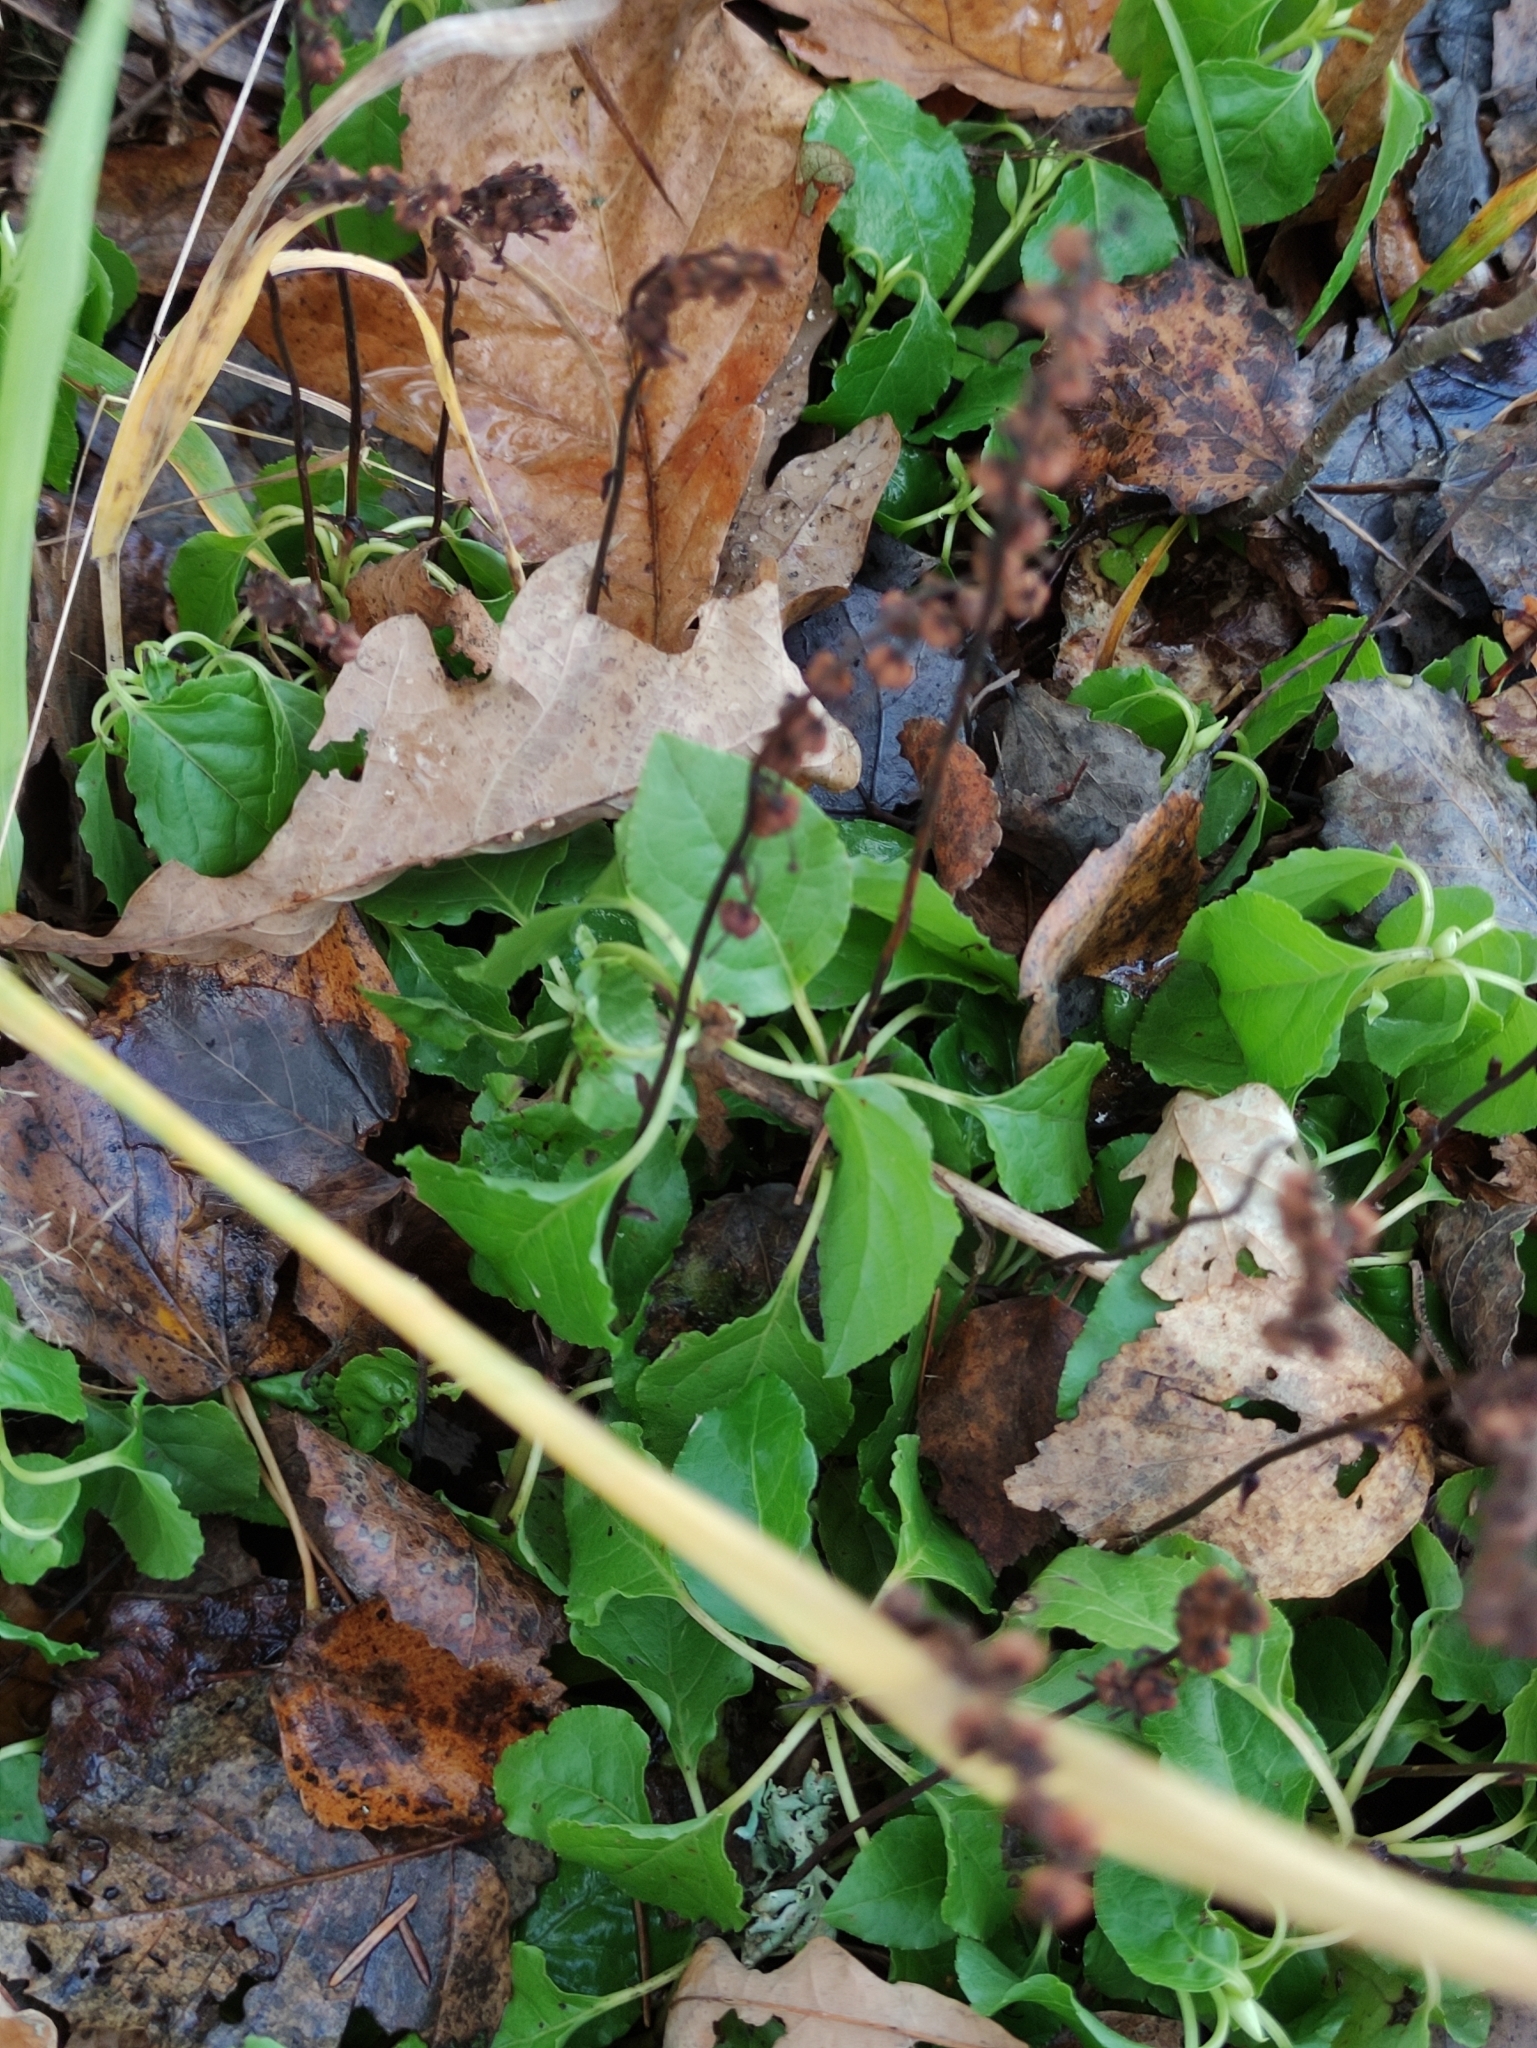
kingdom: Plantae
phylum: Tracheophyta
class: Magnoliopsida
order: Ericales
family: Ericaceae
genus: Orthilia
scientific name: Orthilia secunda
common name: One-sided orthilia
